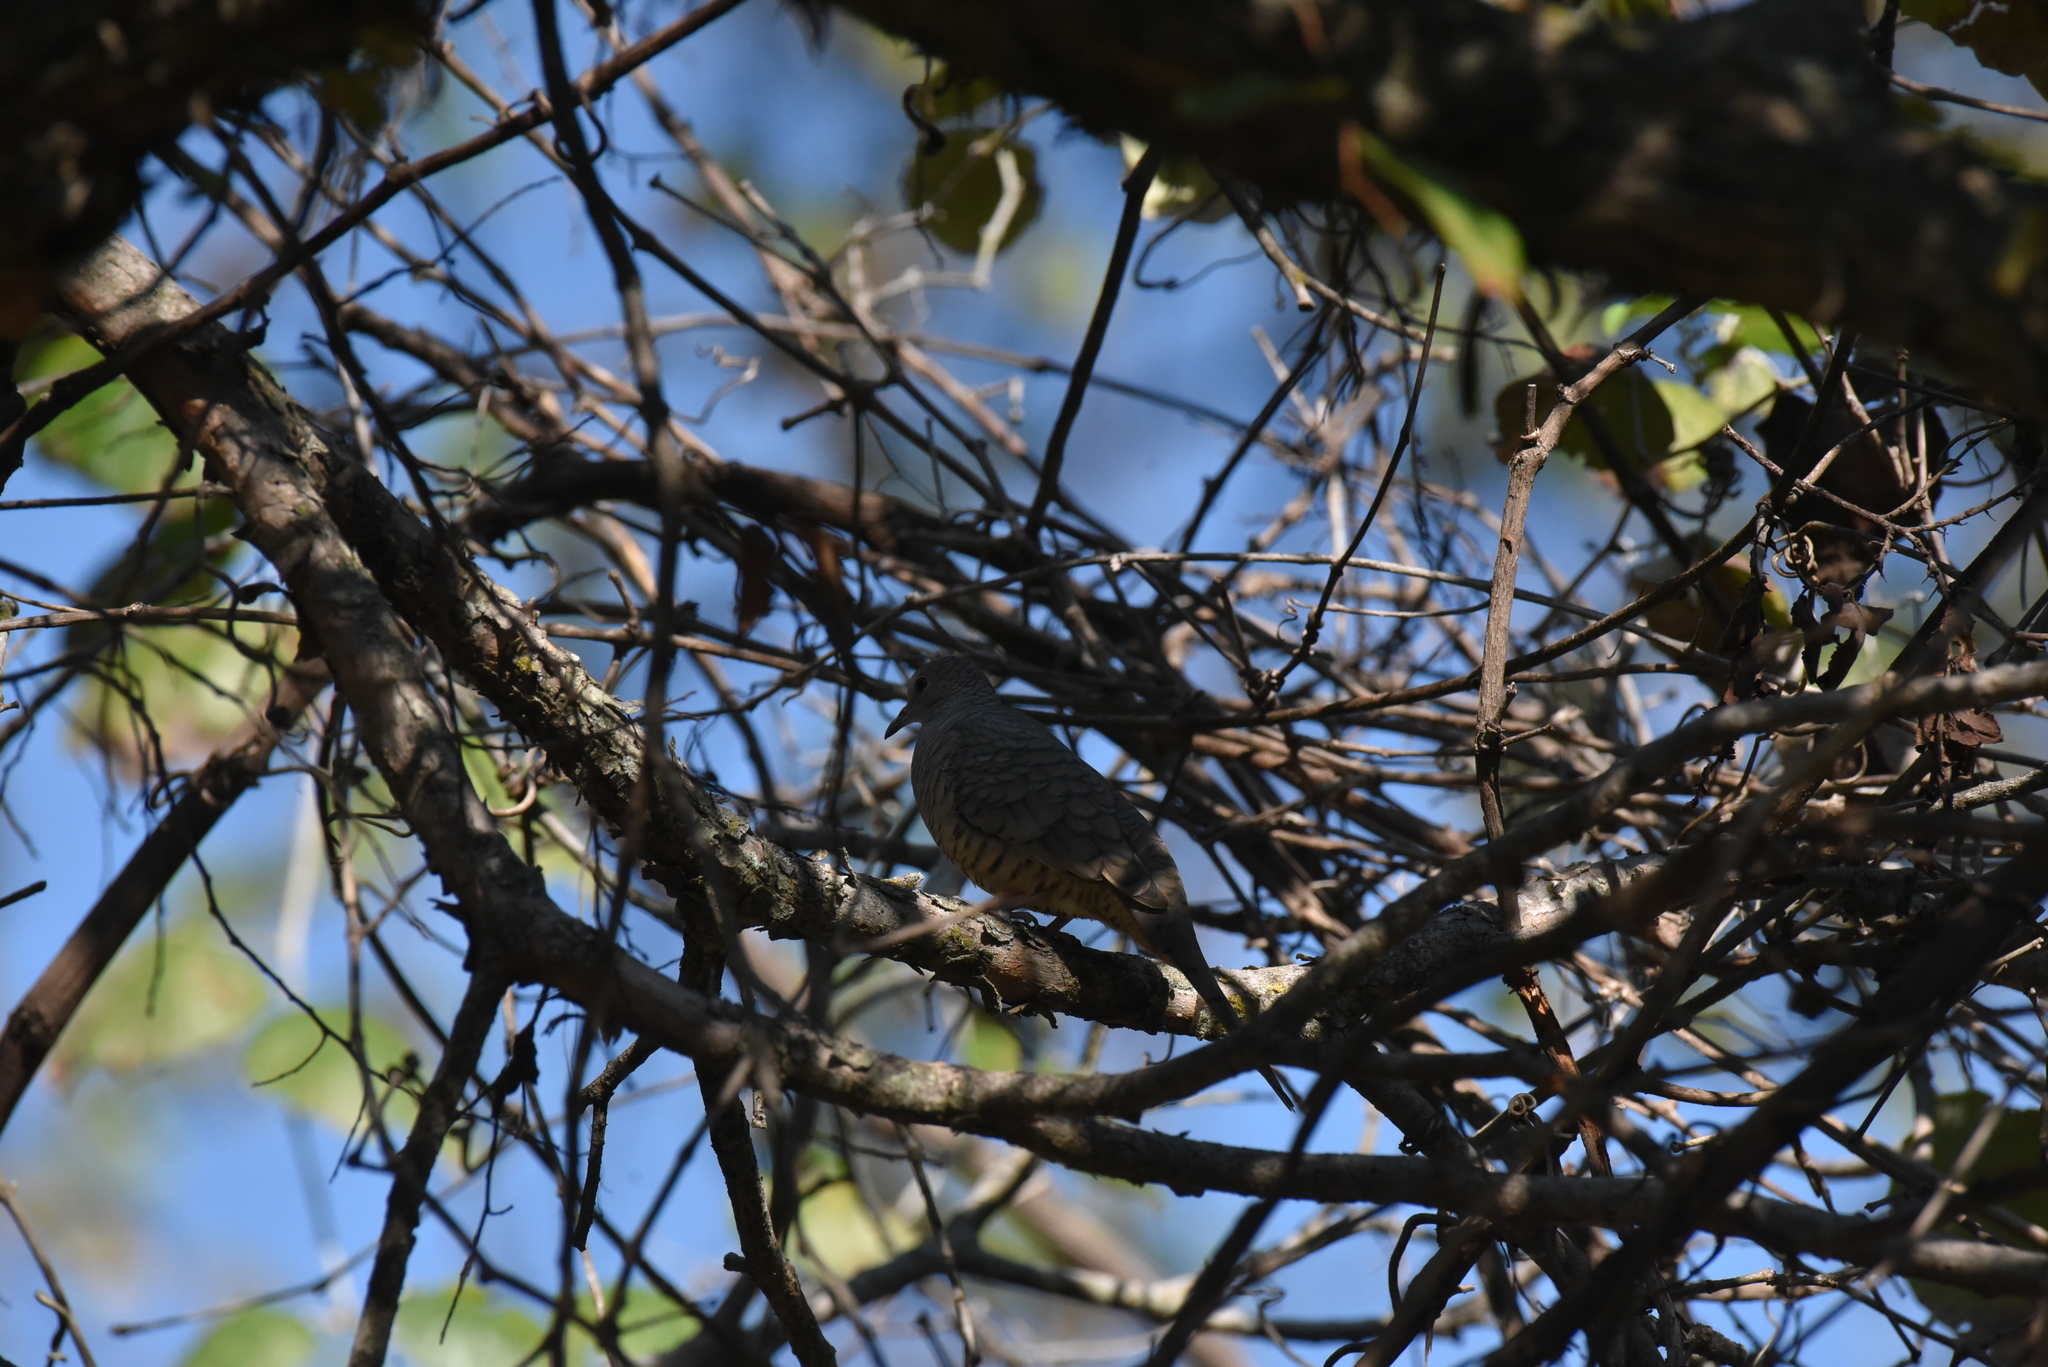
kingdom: Animalia
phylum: Chordata
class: Aves
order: Columbiformes
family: Columbidae
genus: Columbina
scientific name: Columbina inca
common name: Inca dove
